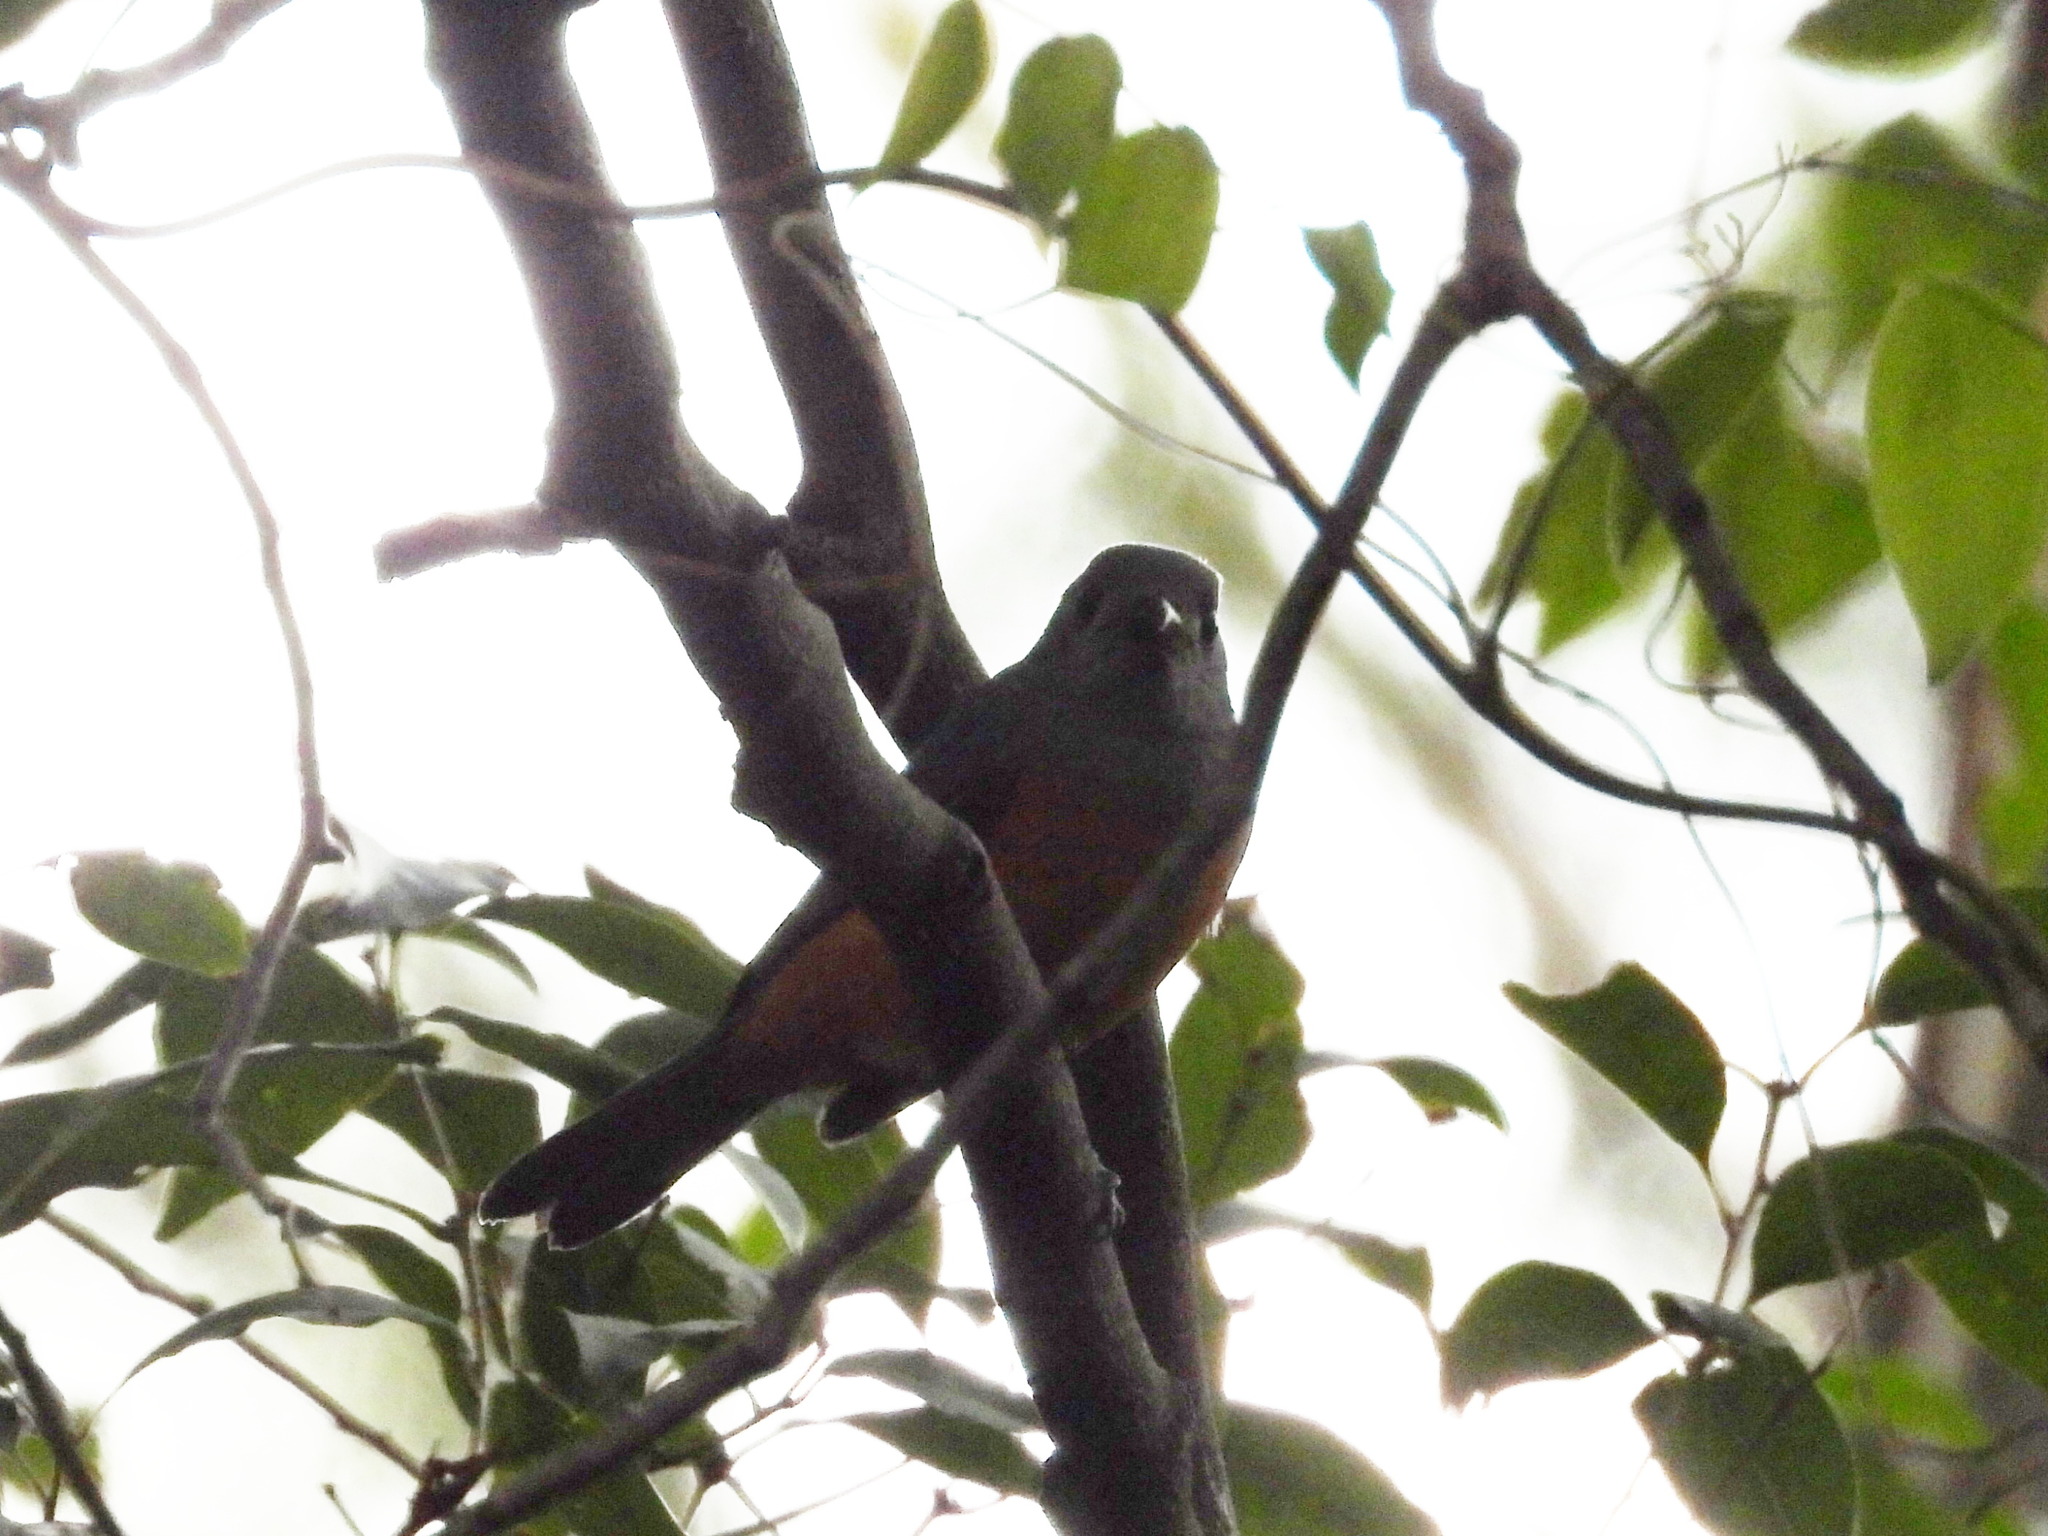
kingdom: Animalia
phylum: Chordata
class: Aves
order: Passeriformes
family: Monarchidae
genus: Monarcha
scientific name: Monarcha melanopsis
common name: Black-faced monarch
